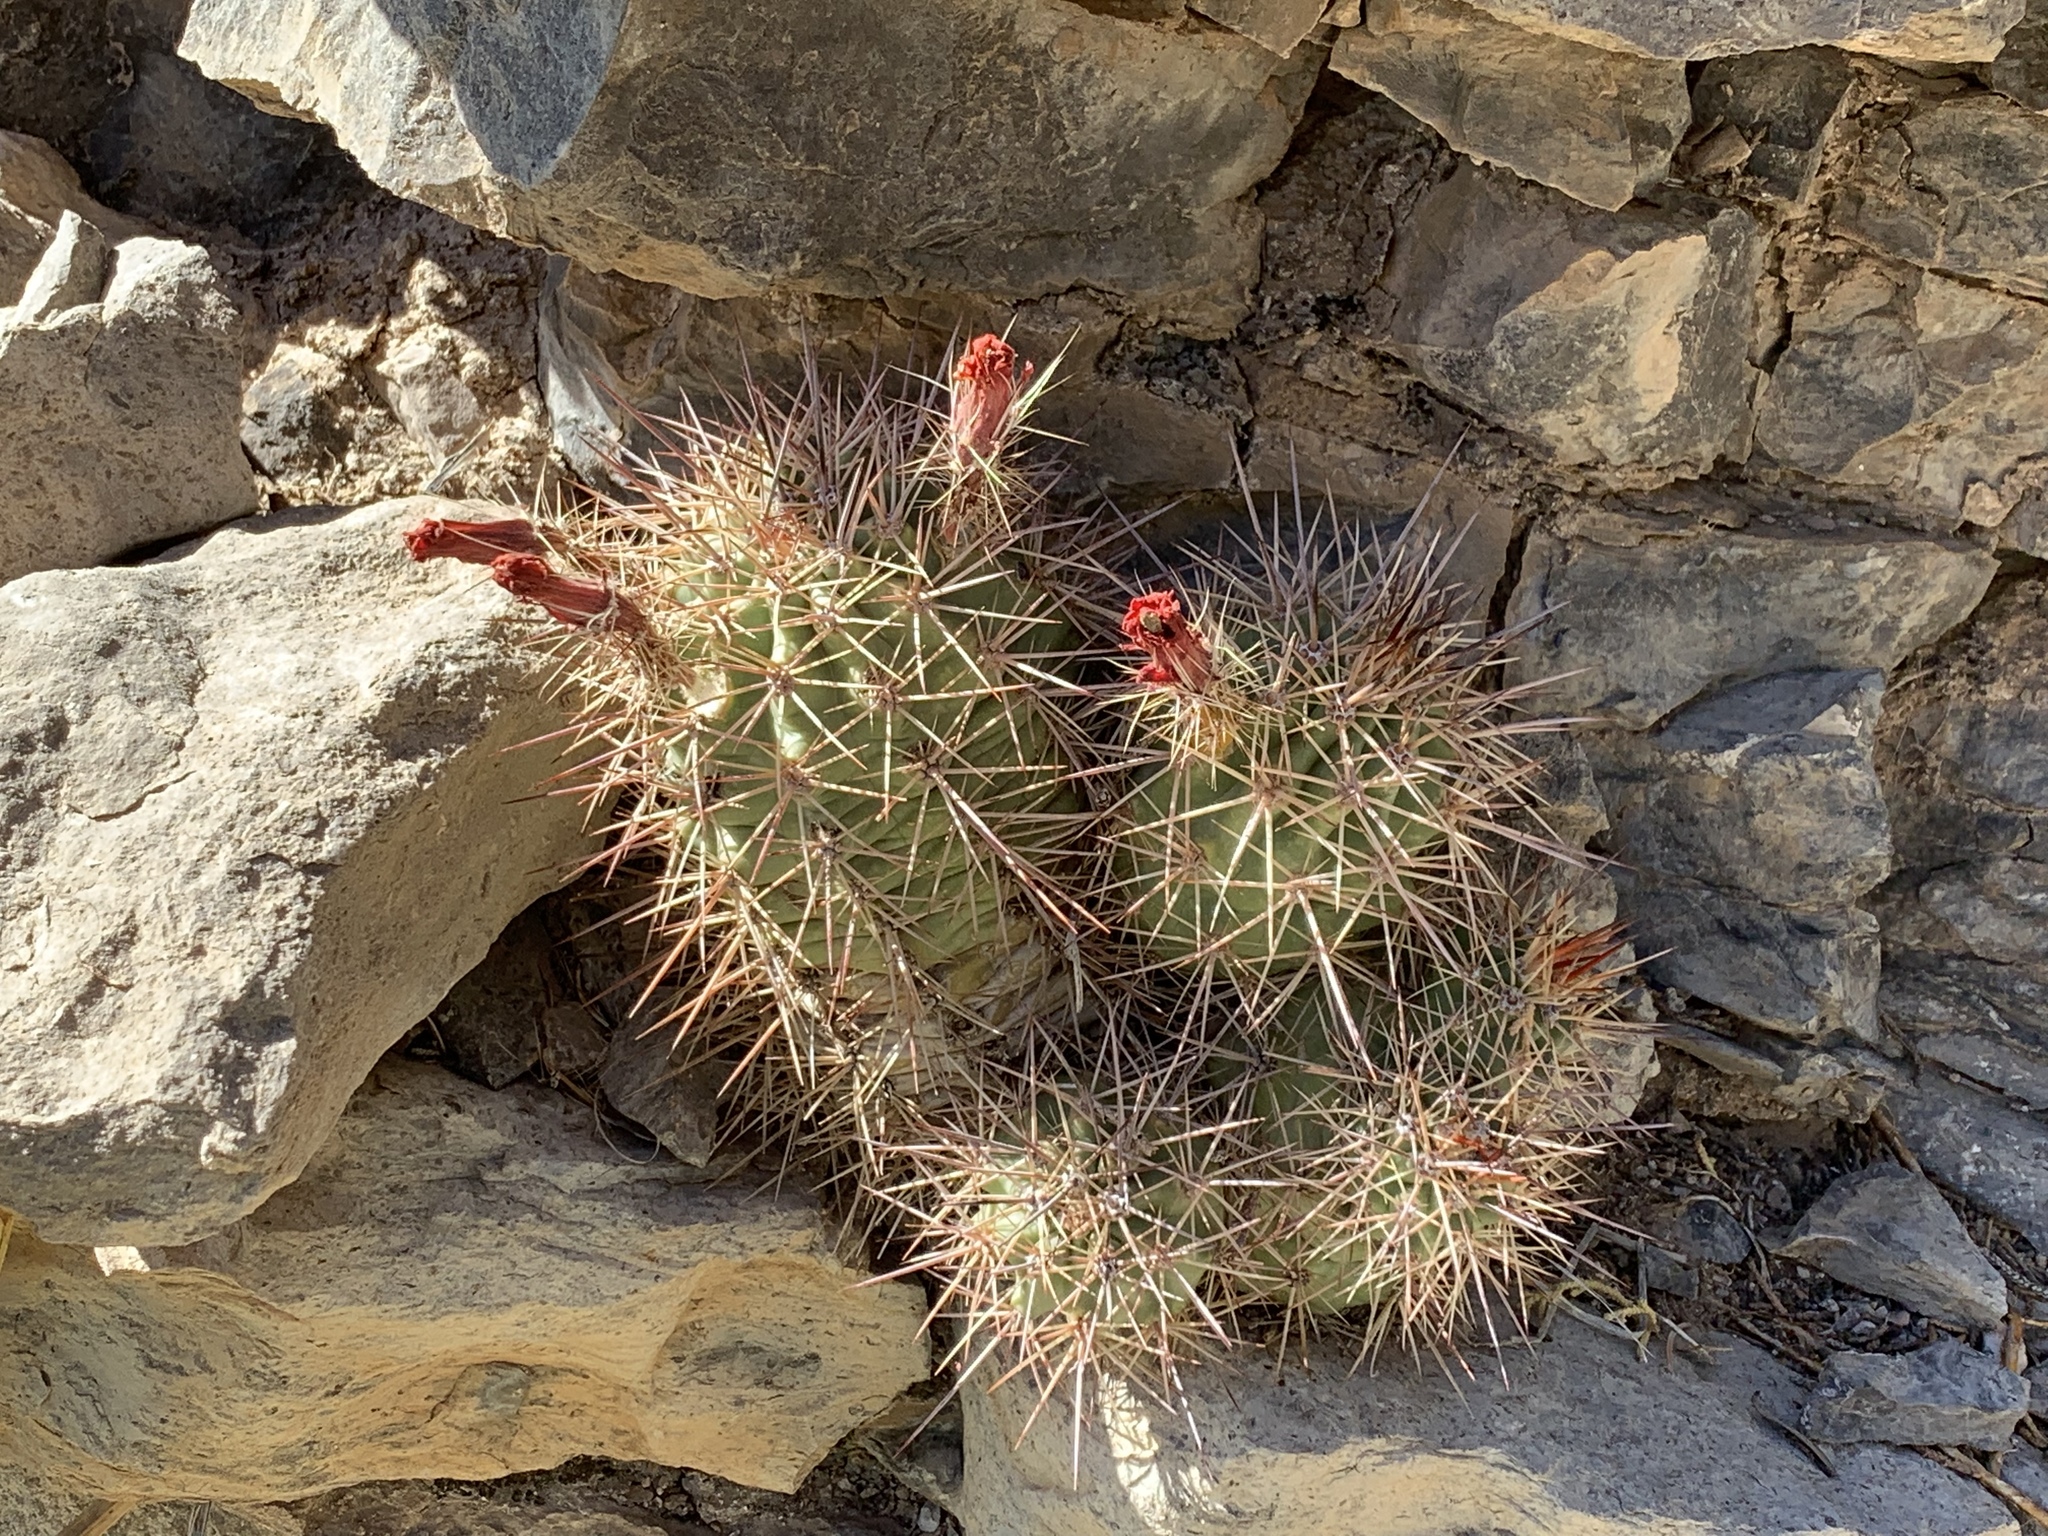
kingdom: Plantae
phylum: Tracheophyta
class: Magnoliopsida
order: Caryophyllales
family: Cactaceae
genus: Echinocereus
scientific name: Echinocereus coccineus
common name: Scarlet hedgehog cactus
